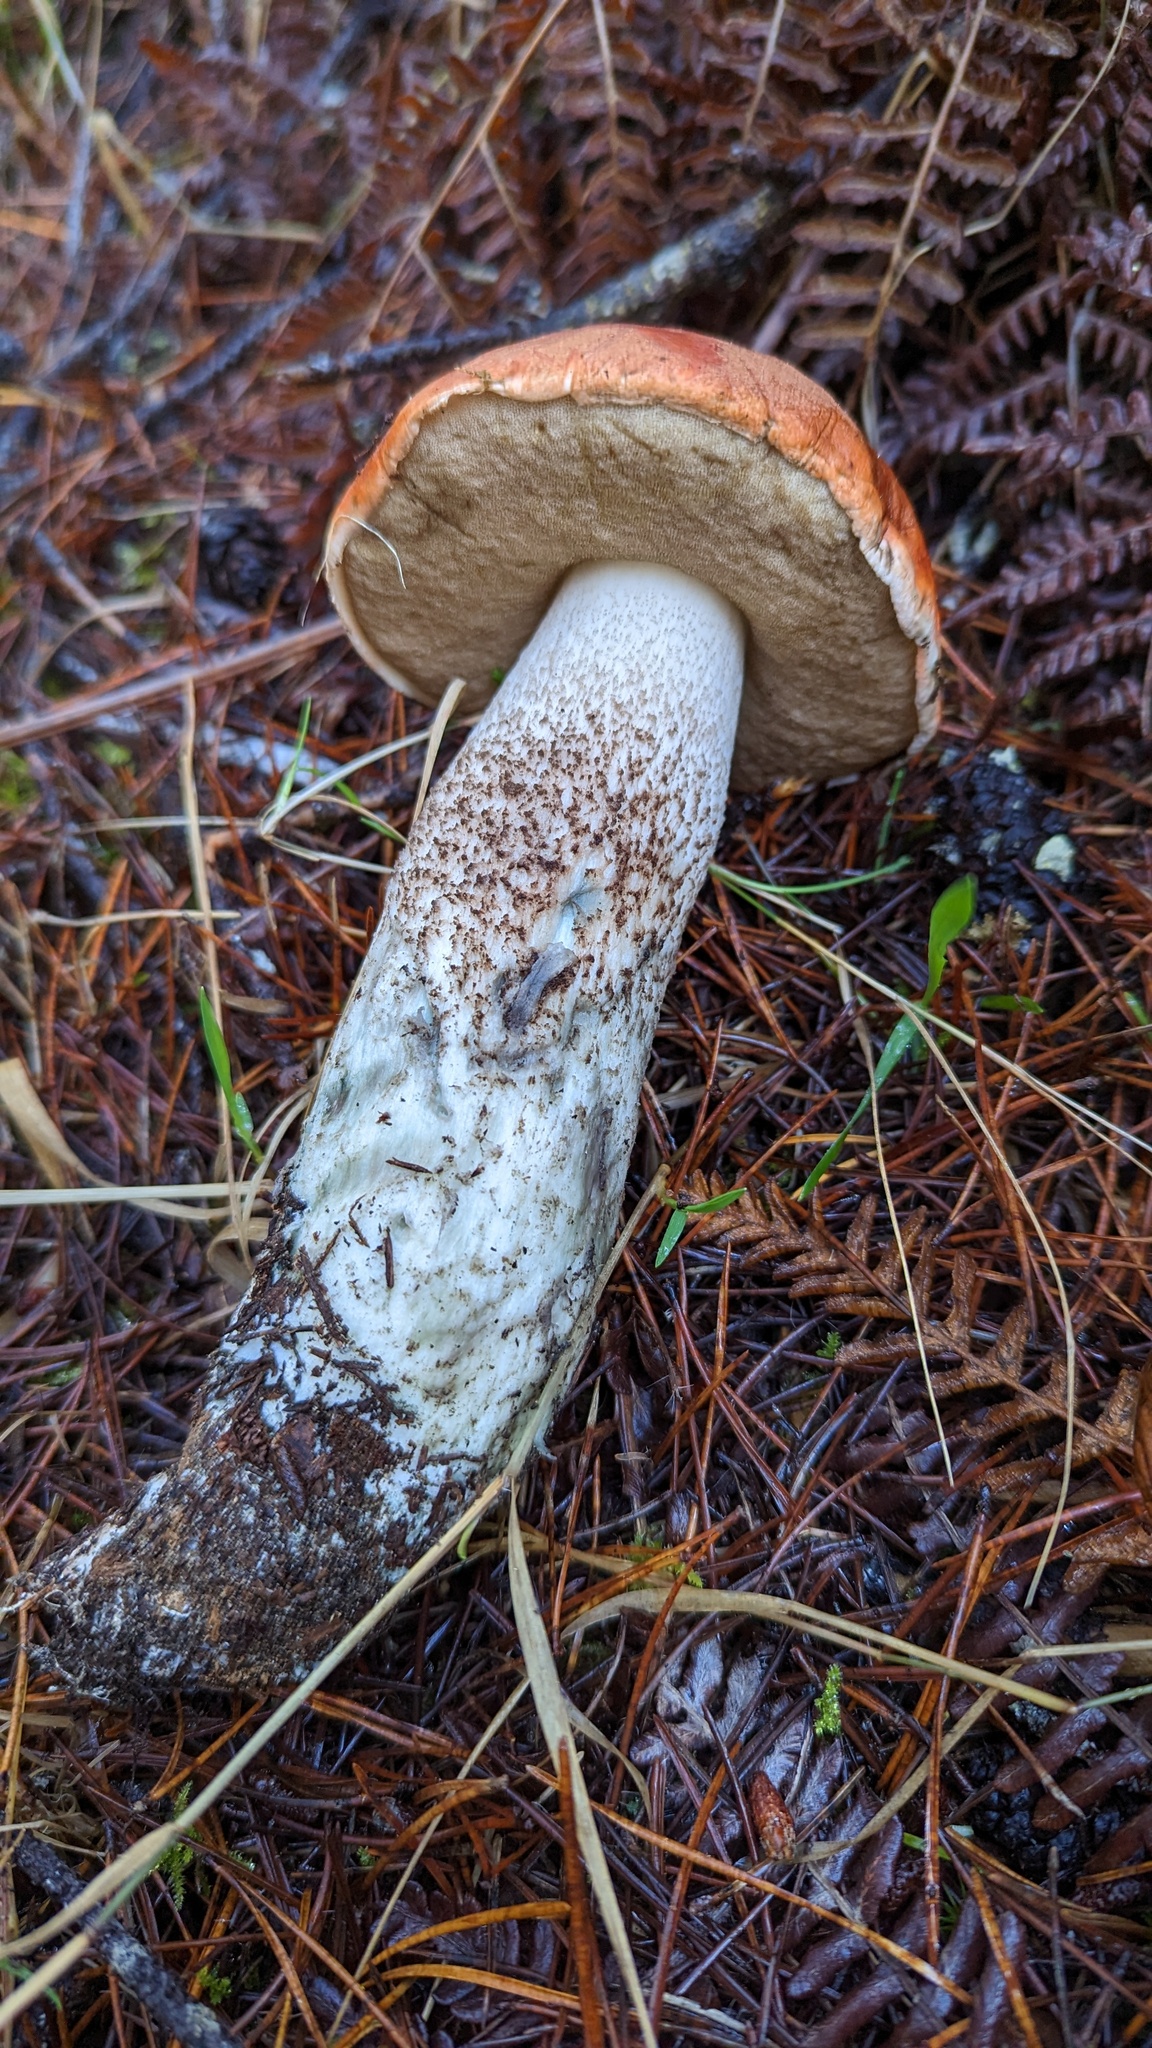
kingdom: Fungi
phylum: Basidiomycota
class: Agaricomycetes
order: Boletales
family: Boletaceae
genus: Leccinum
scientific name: Leccinum manzanitae
